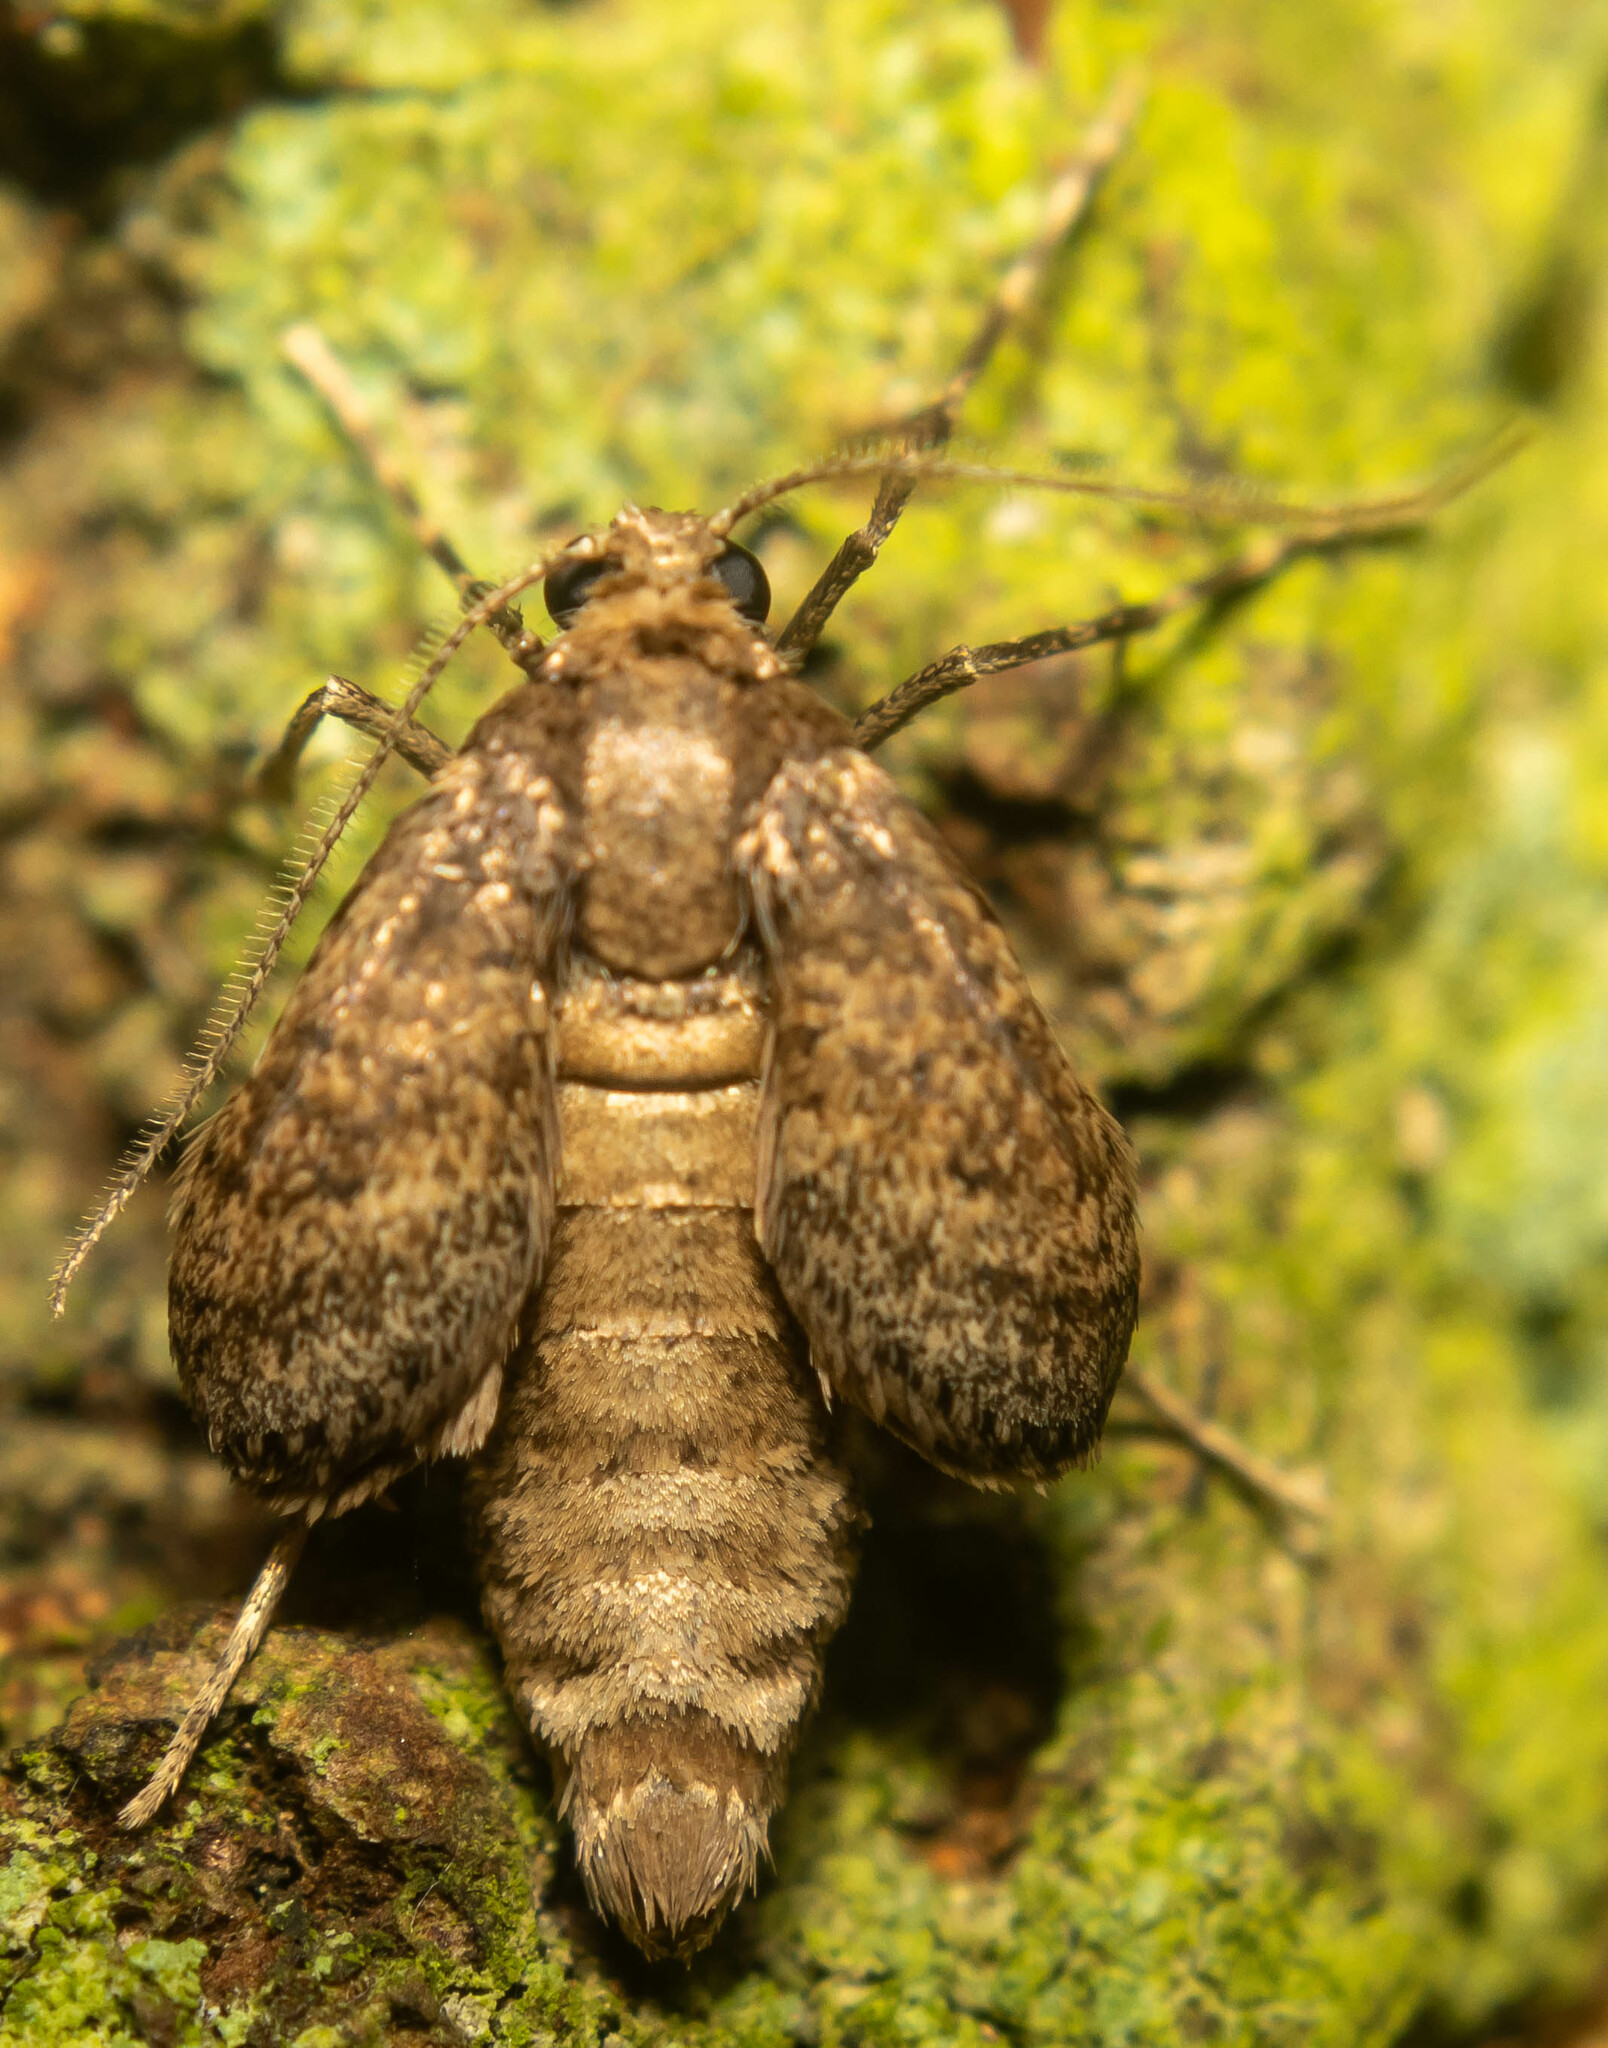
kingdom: Animalia
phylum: Arthropoda
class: Insecta
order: Lepidoptera
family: Geometridae
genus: Operophtera
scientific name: Operophtera brumata
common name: Winter moth
